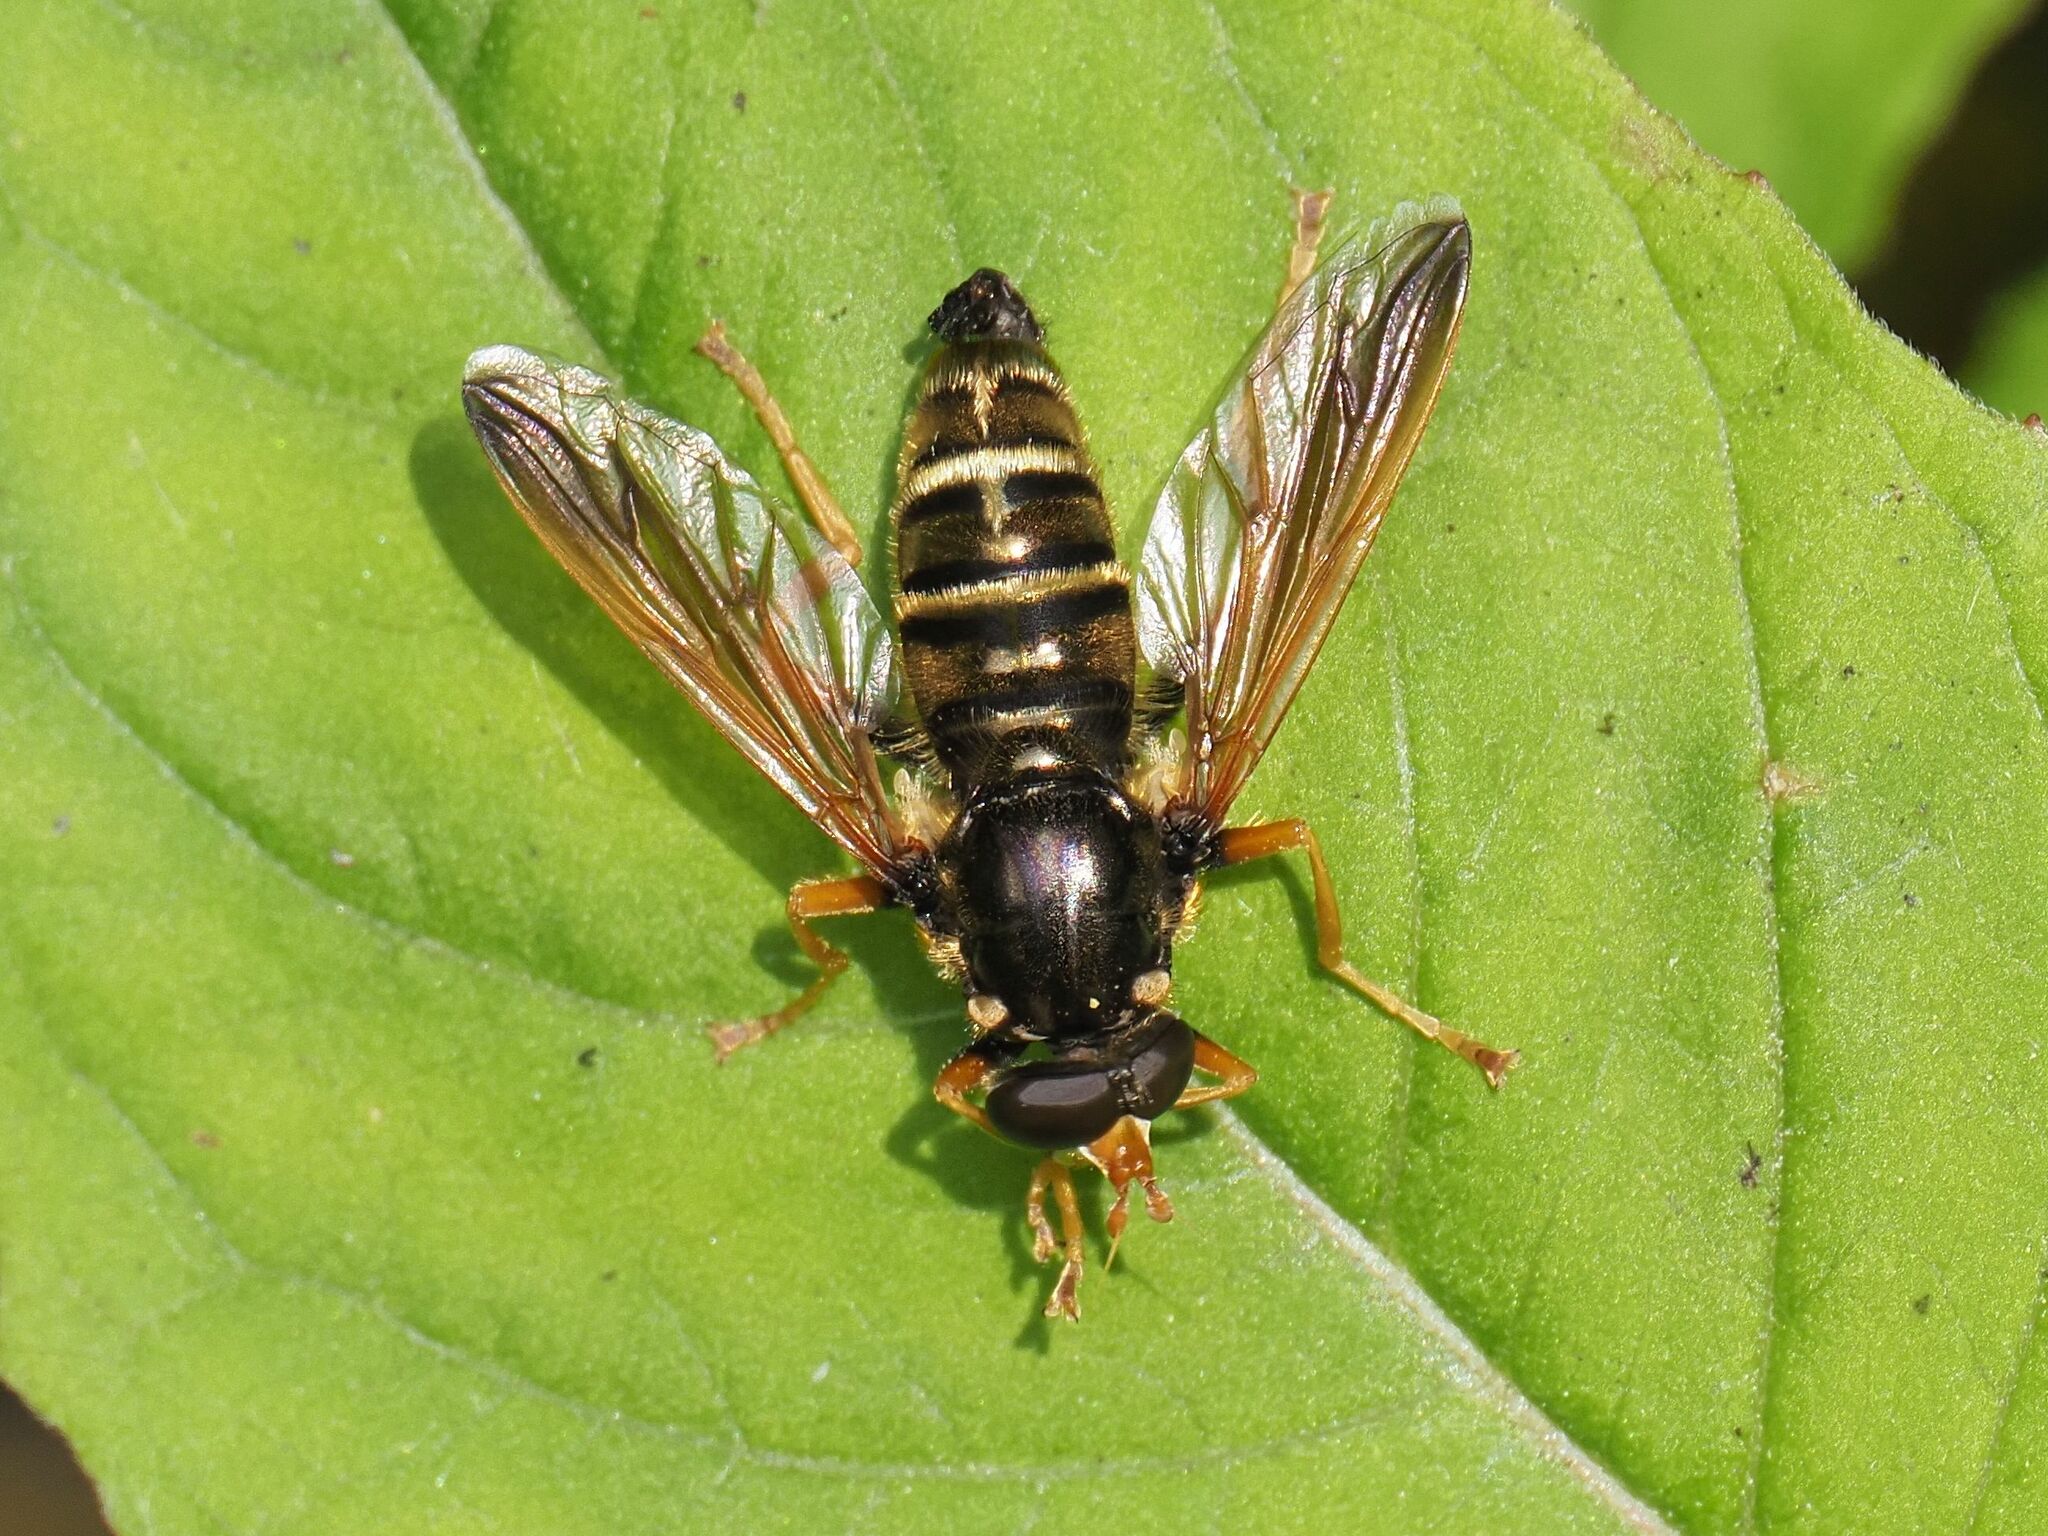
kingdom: Animalia
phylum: Arthropoda
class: Insecta
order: Diptera
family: Syrphidae
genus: Caliprobola
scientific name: Caliprobola speciosa
